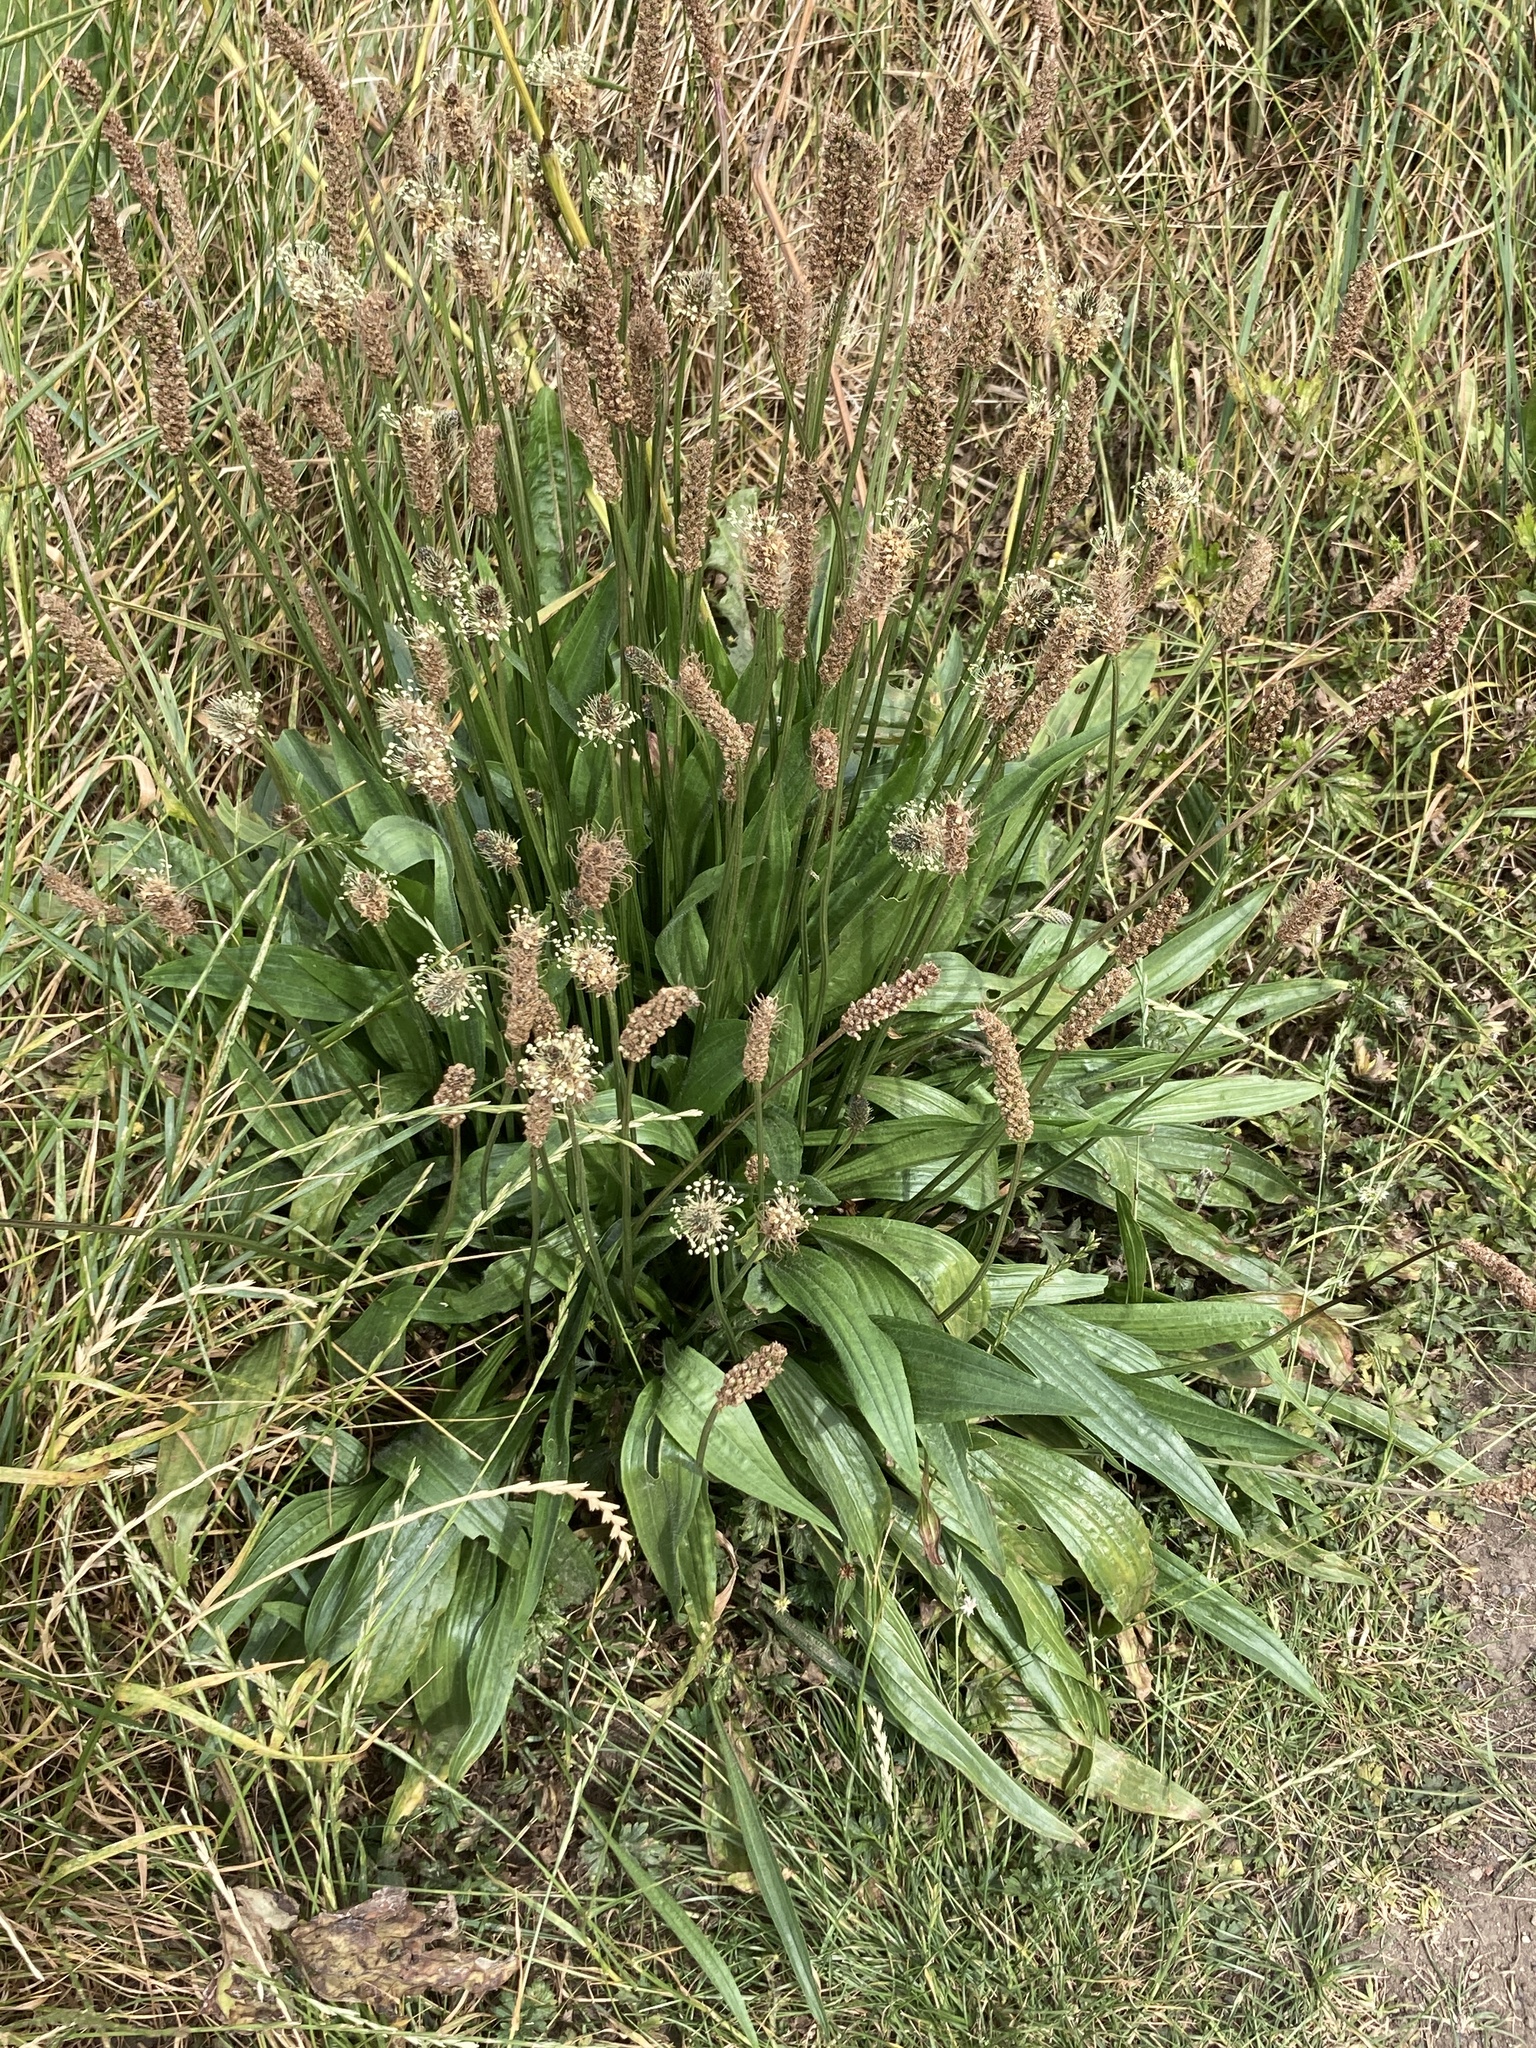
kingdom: Plantae
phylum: Tracheophyta
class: Magnoliopsida
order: Lamiales
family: Plantaginaceae
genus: Plantago
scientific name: Plantago lanceolata
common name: Ribwort plantain
